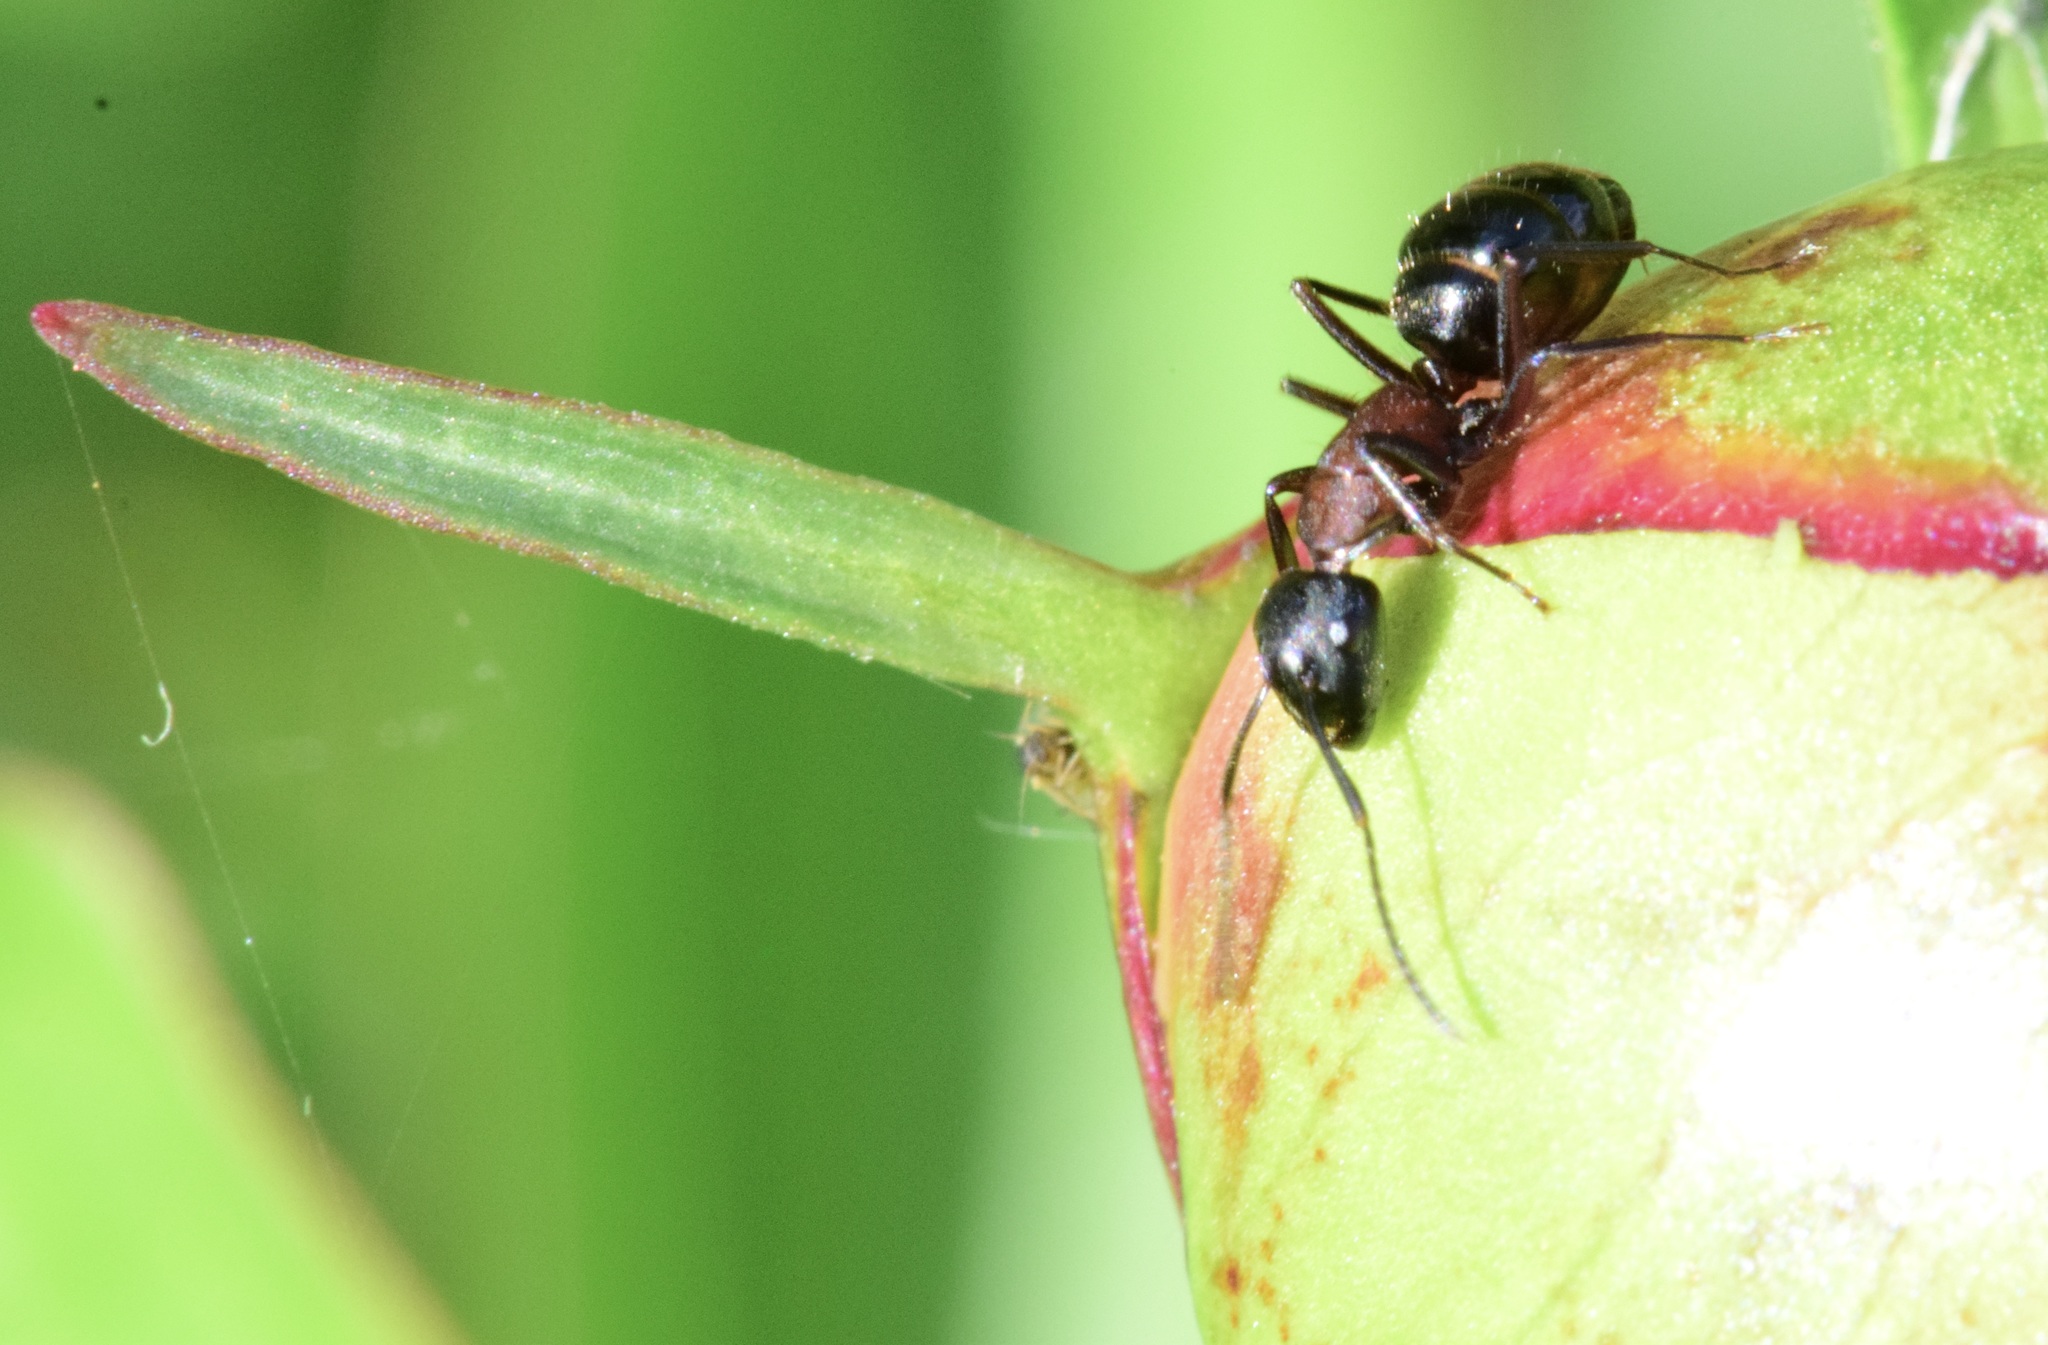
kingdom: Animalia
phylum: Arthropoda
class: Insecta
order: Hymenoptera
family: Formicidae
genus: Camponotus
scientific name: Camponotus novaeboracensis
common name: New york carpenter ant
